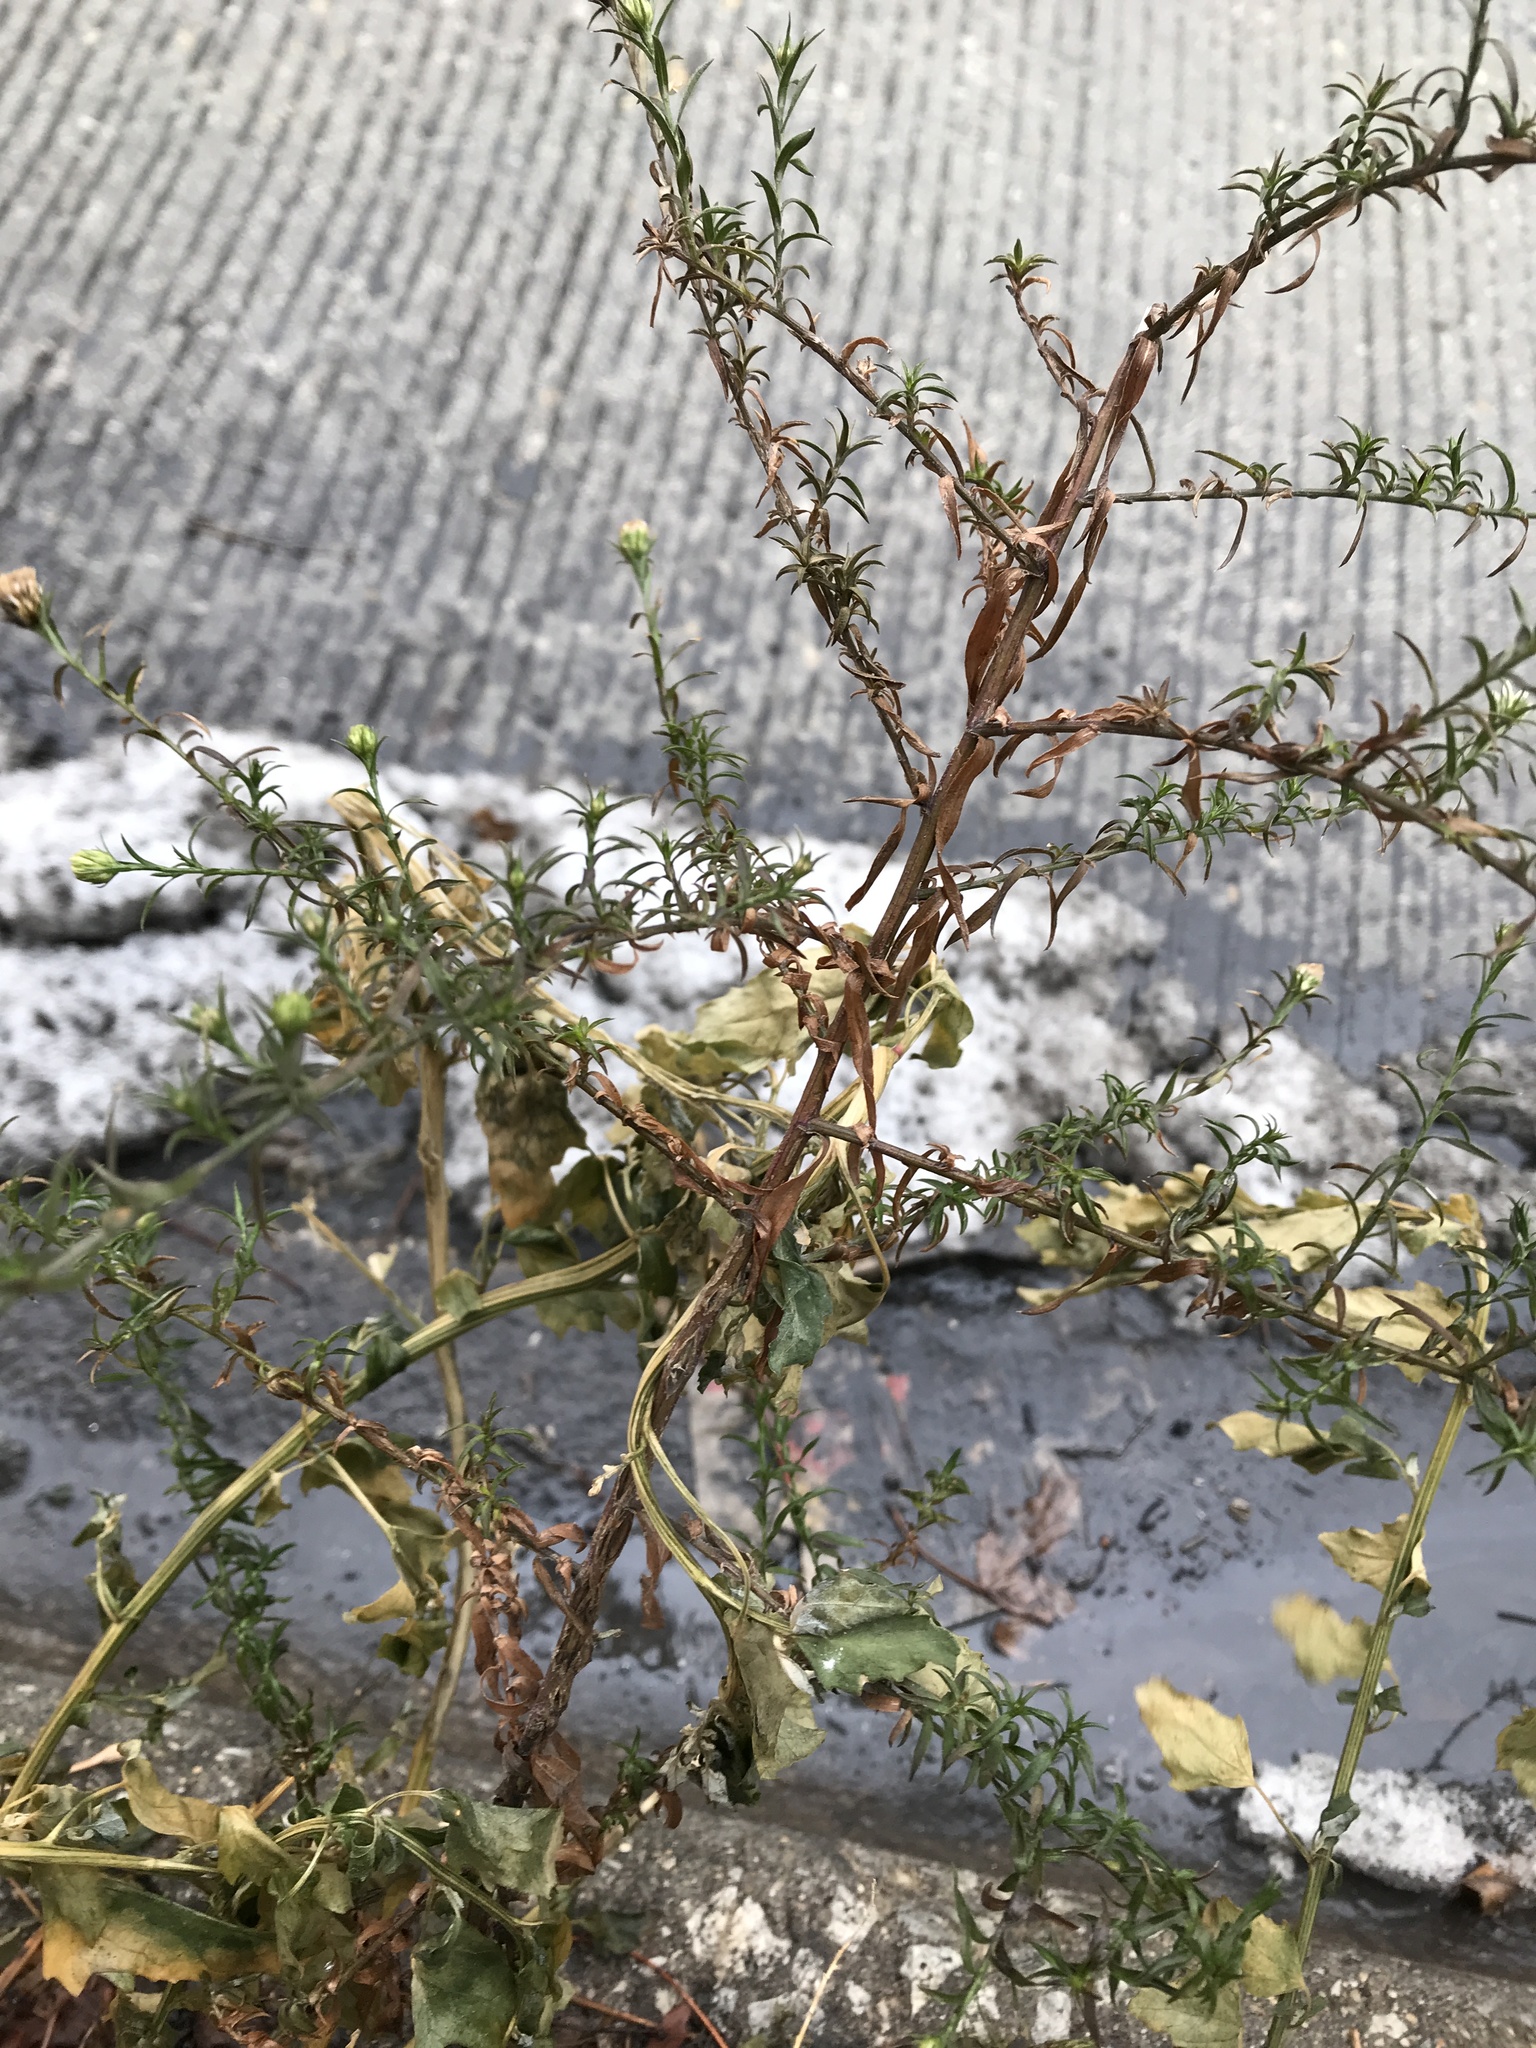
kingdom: Plantae
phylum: Tracheophyta
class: Magnoliopsida
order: Asterales
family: Asteraceae
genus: Symphyotrichum
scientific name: Symphyotrichum pilosum
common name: Awl aster
